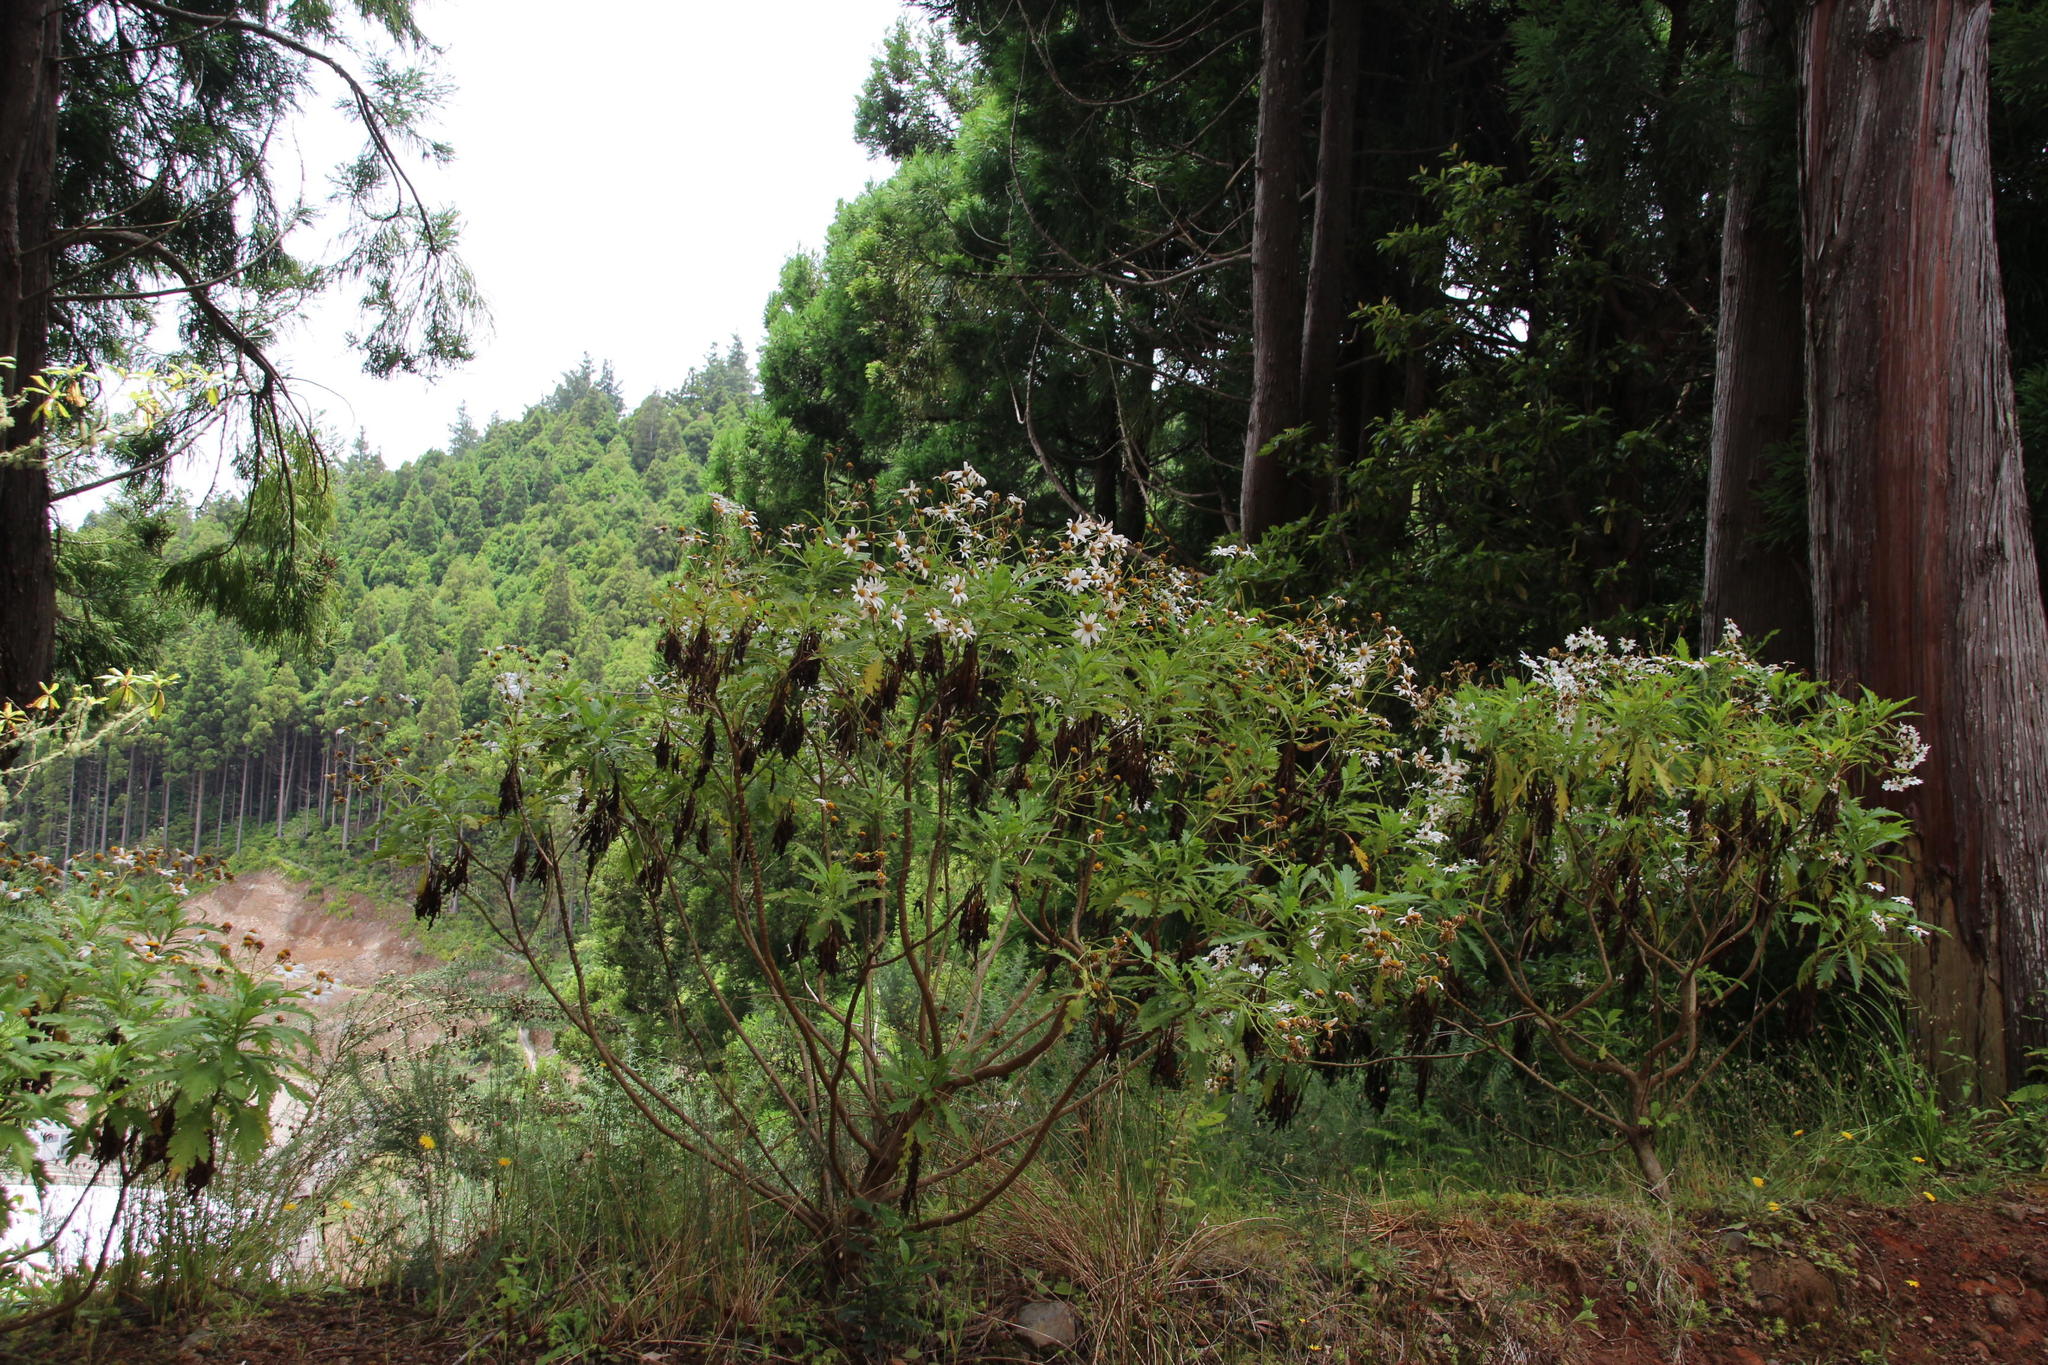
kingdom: Plantae
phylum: Tracheophyta
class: Magnoliopsida
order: Asterales
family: Asteraceae
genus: Argyranthemum
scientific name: Argyranthemum pinnatifidum
